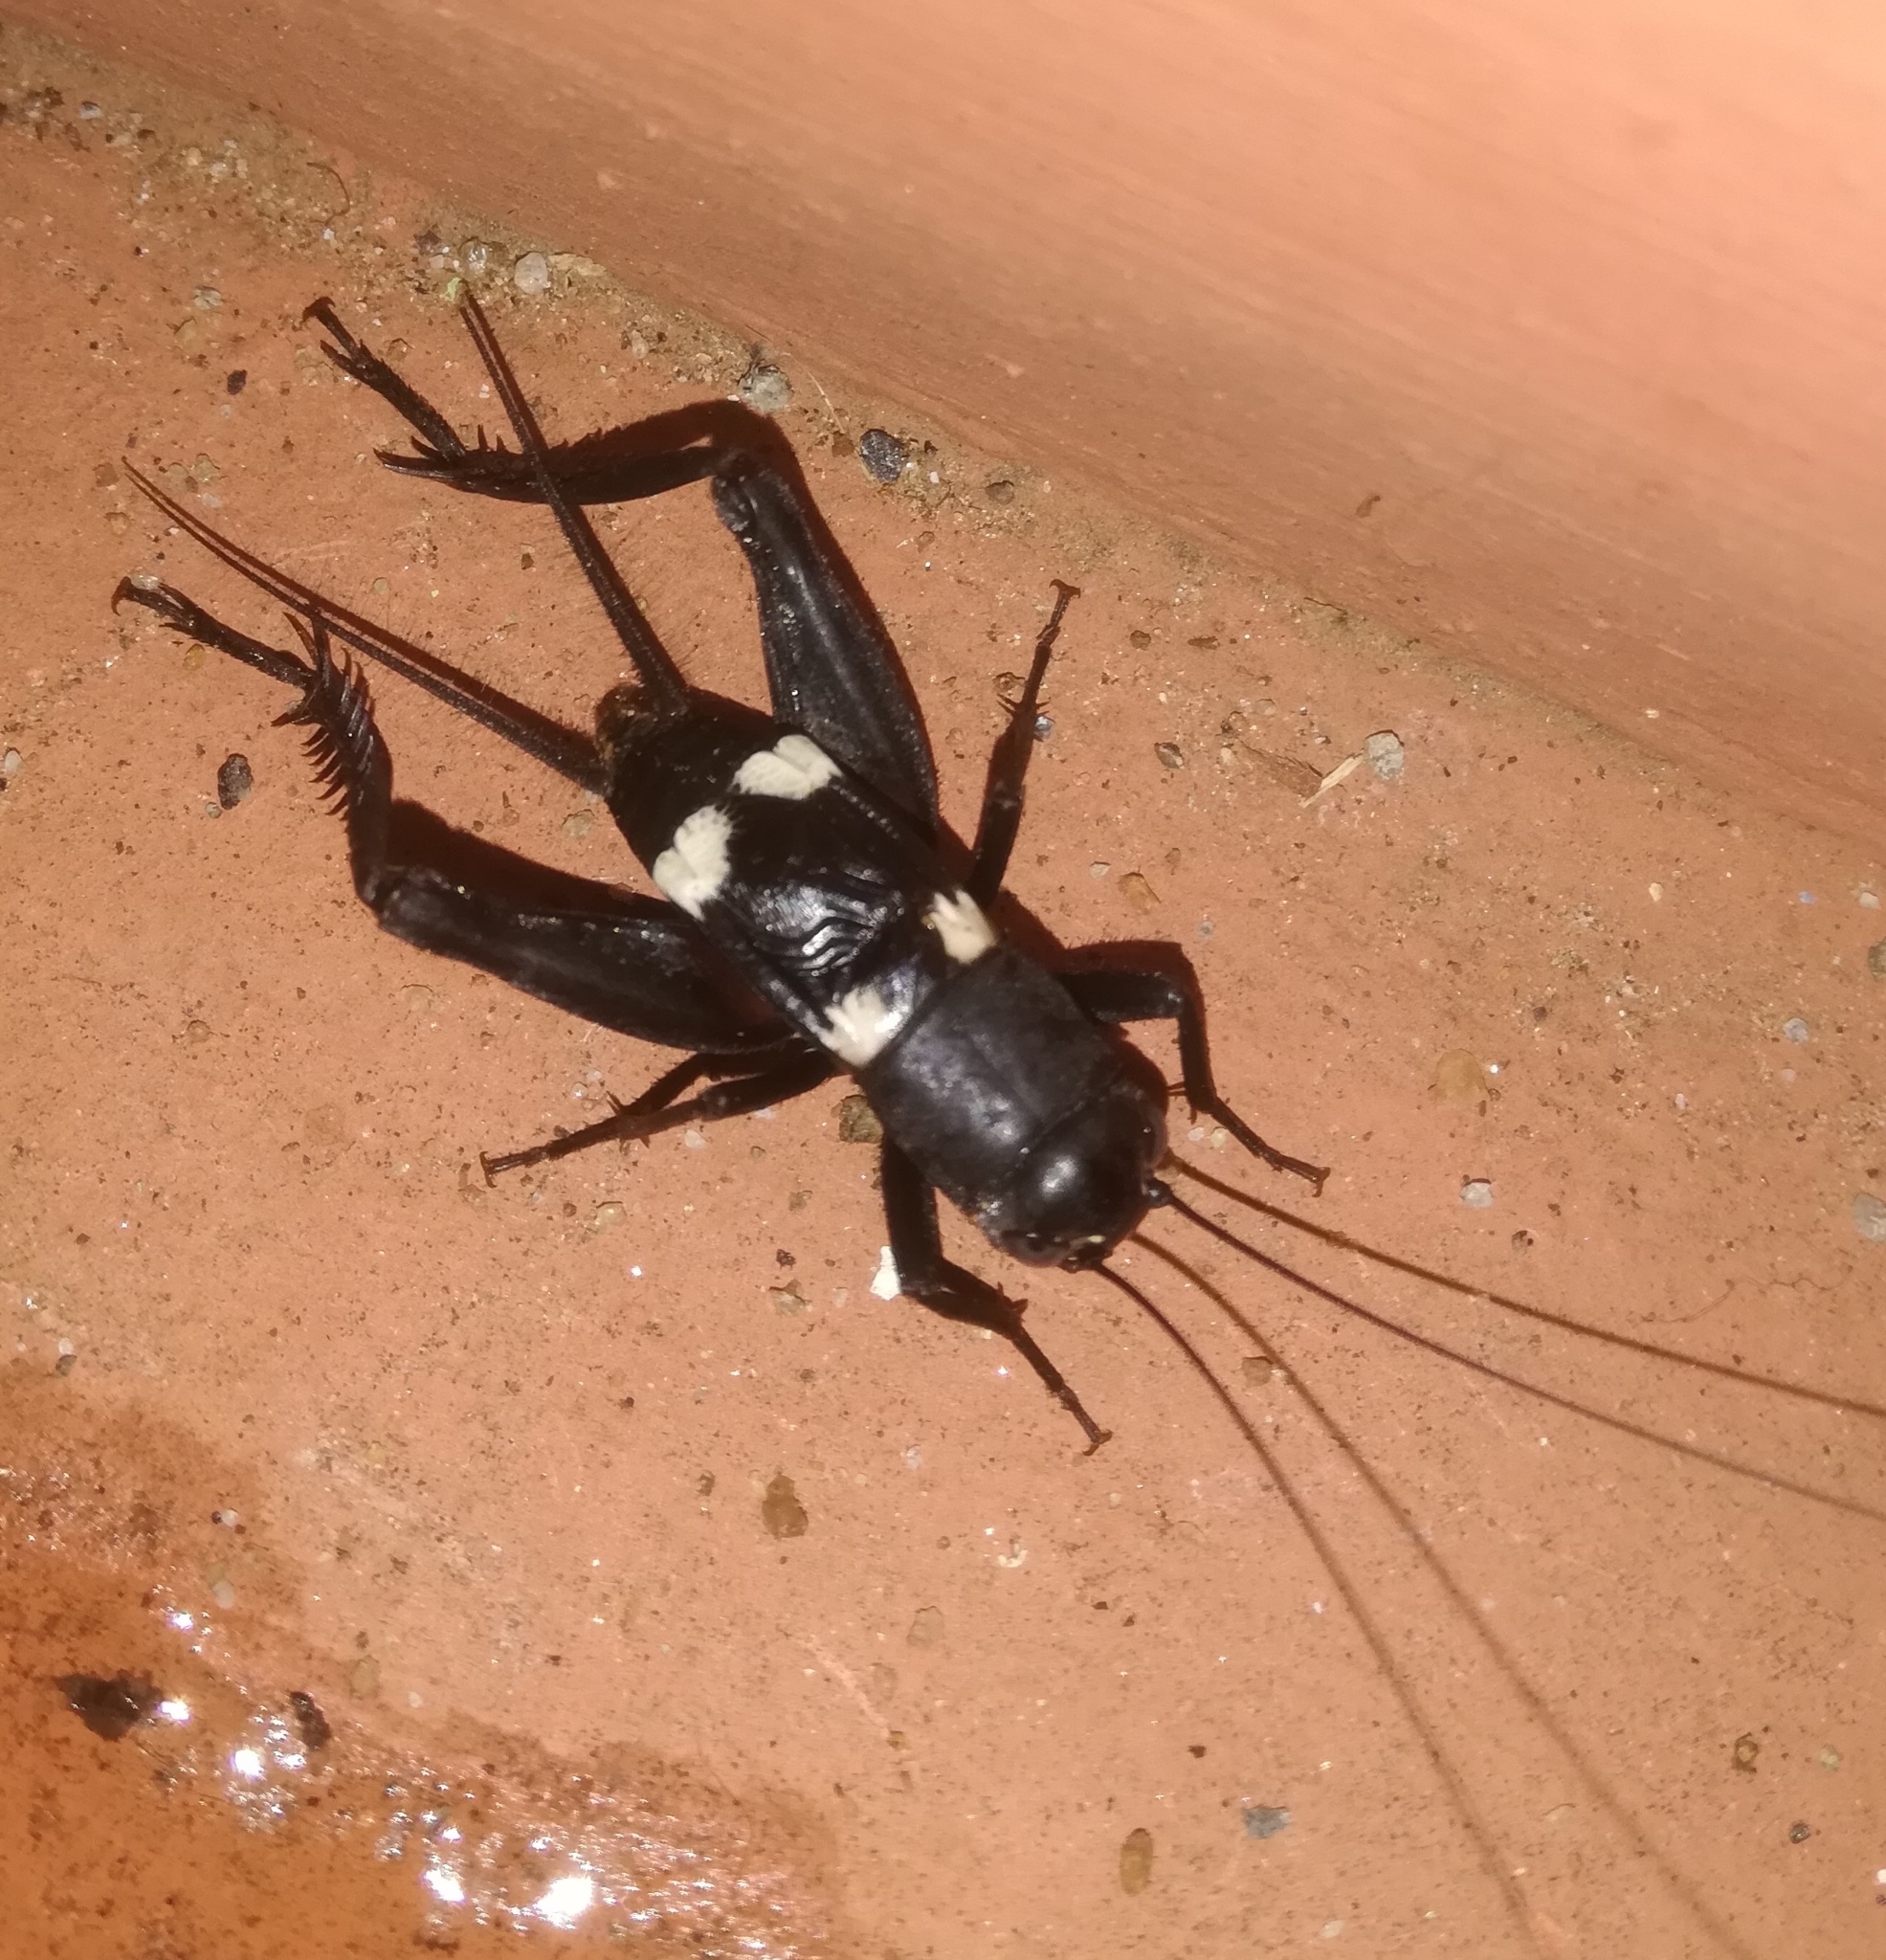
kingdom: Animalia
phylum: Arthropoda
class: Insecta
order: Orthoptera
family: Gryllidae
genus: Gryllus
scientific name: Gryllus quadrimaculatus
